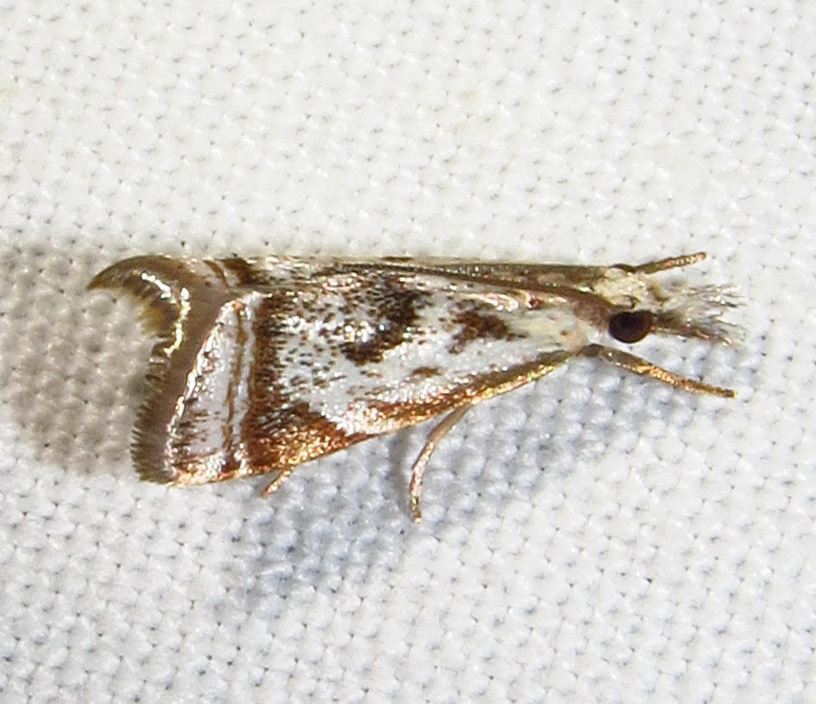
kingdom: Animalia
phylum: Arthropoda
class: Insecta
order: Lepidoptera
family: Crambidae
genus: Microcrambus
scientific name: Microcrambus elegans
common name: Elegant grass-veneer
